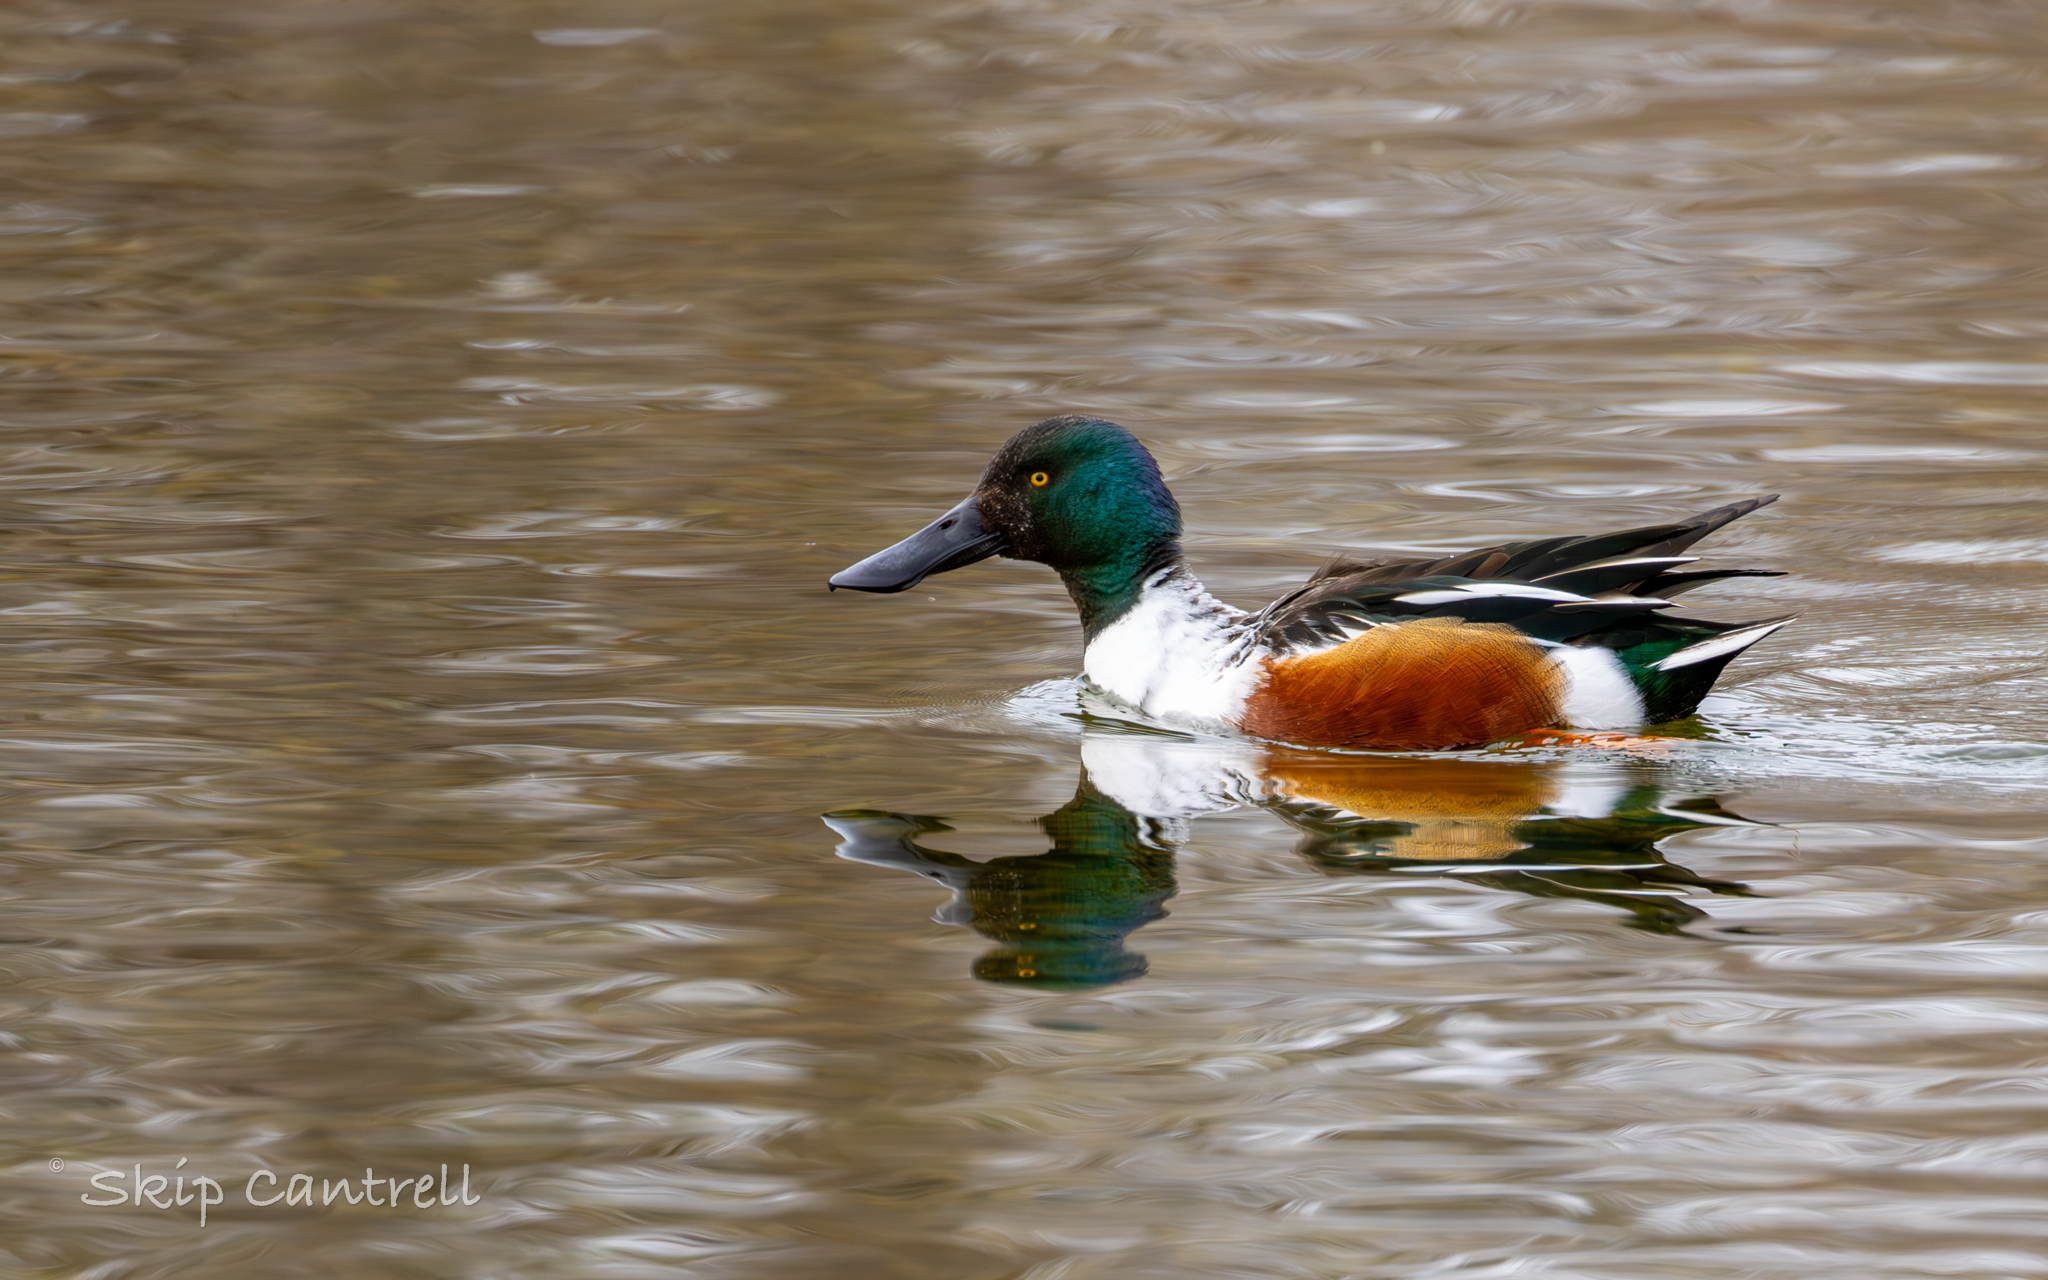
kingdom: Animalia
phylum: Chordata
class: Aves
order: Anseriformes
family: Anatidae
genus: Spatula
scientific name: Spatula clypeata
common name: Northern shoveler
